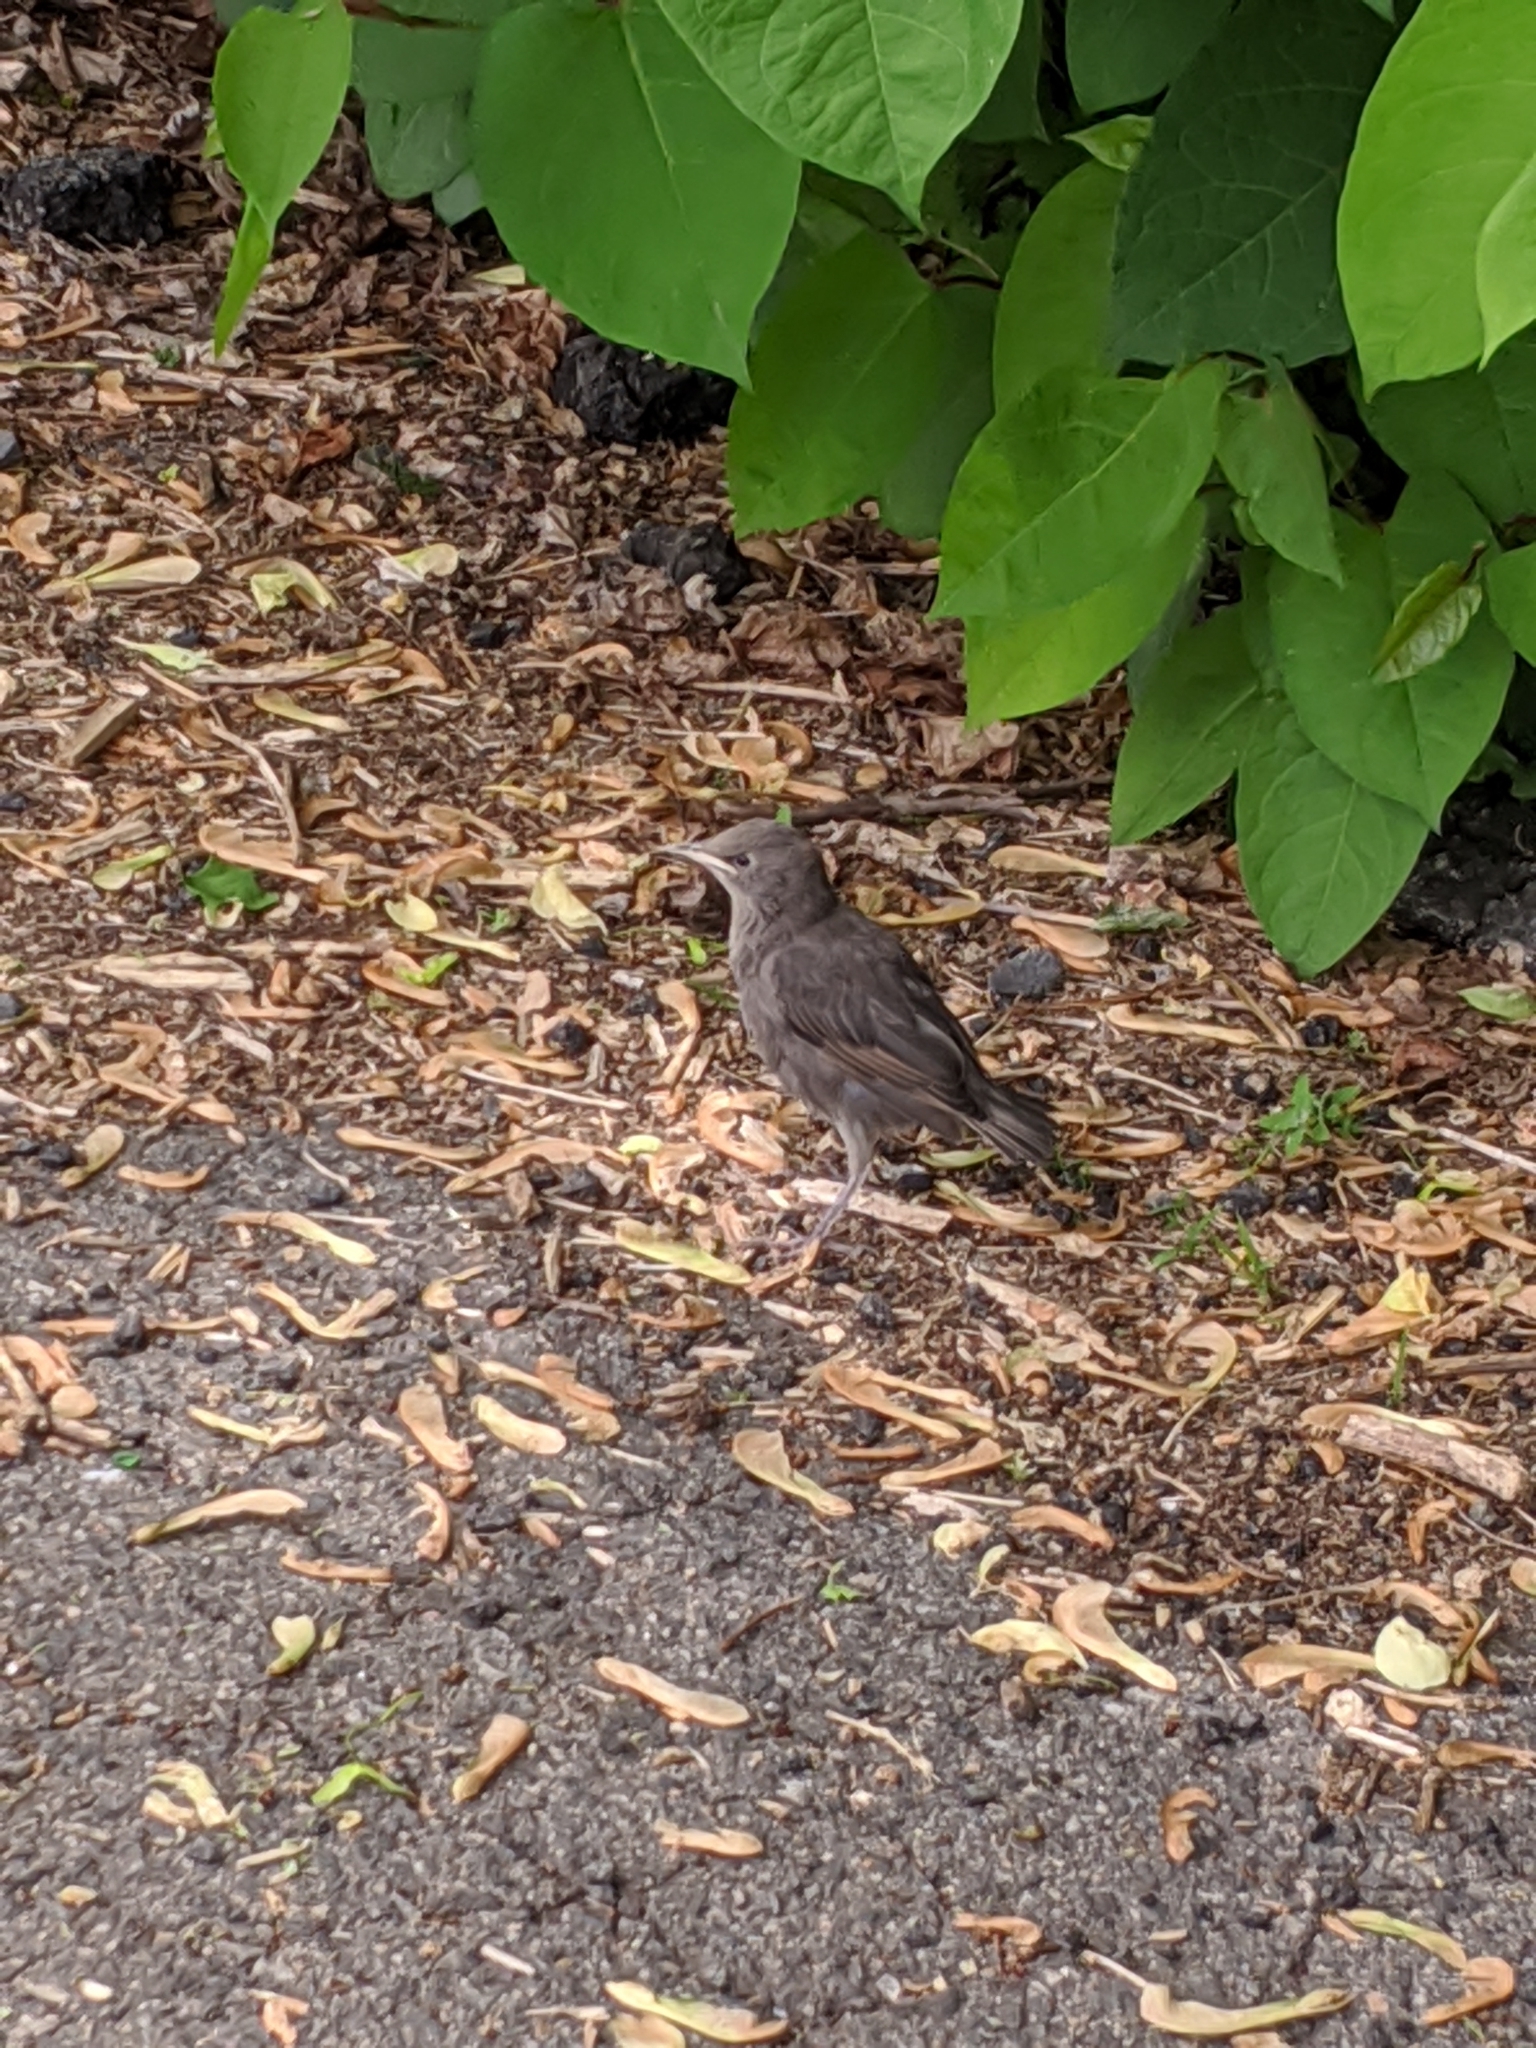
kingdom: Animalia
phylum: Chordata
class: Aves
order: Passeriformes
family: Sturnidae
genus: Sturnus
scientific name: Sturnus vulgaris
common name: Common starling
